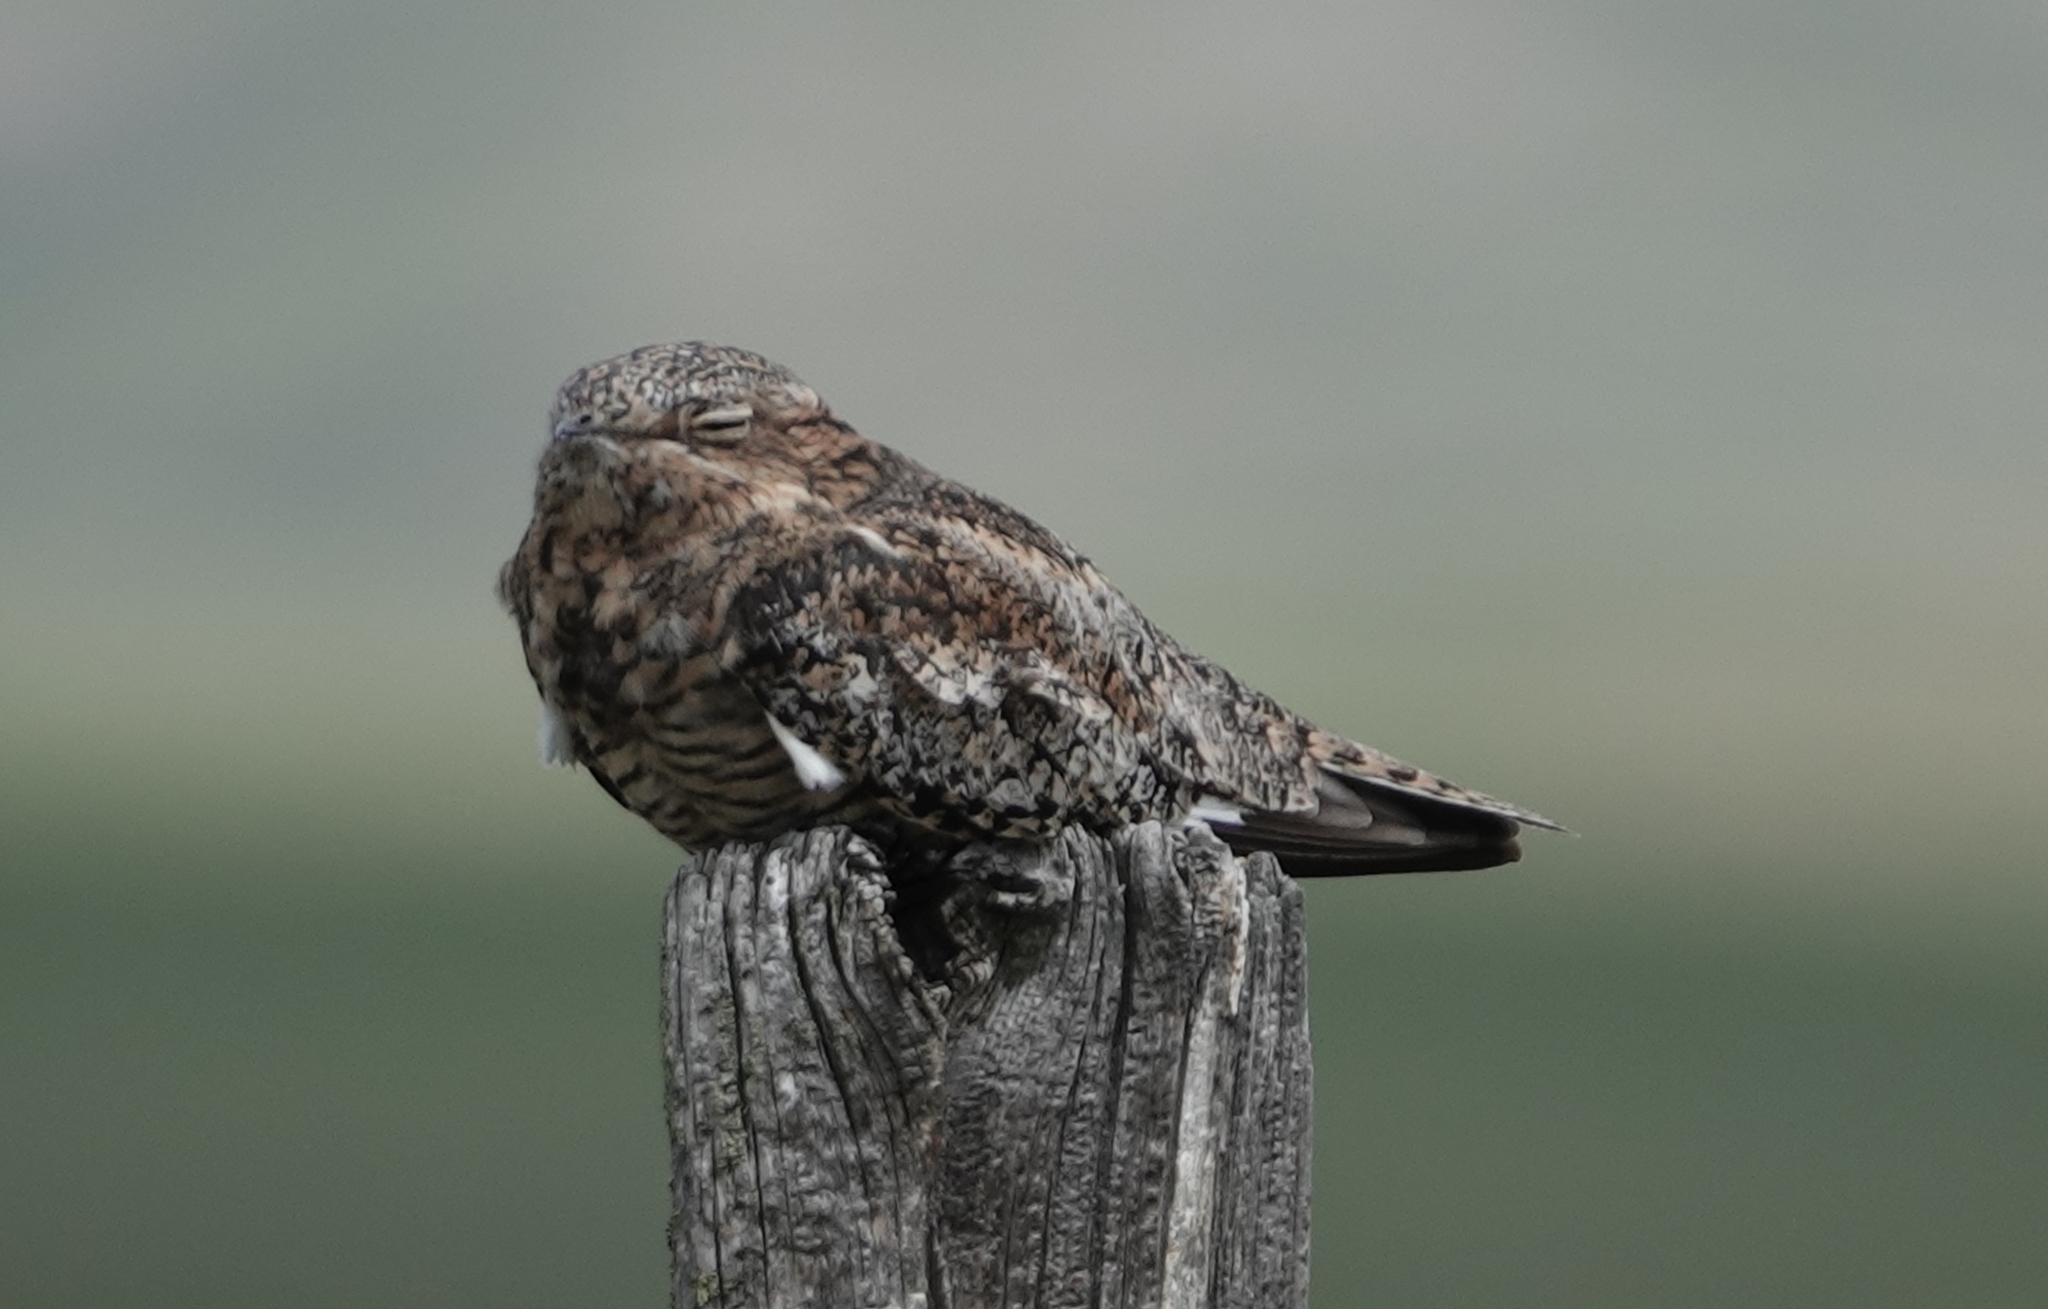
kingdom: Animalia
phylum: Chordata
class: Aves
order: Caprimulgiformes
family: Caprimulgidae
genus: Chordeiles
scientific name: Chordeiles minor
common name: Common nighthawk
